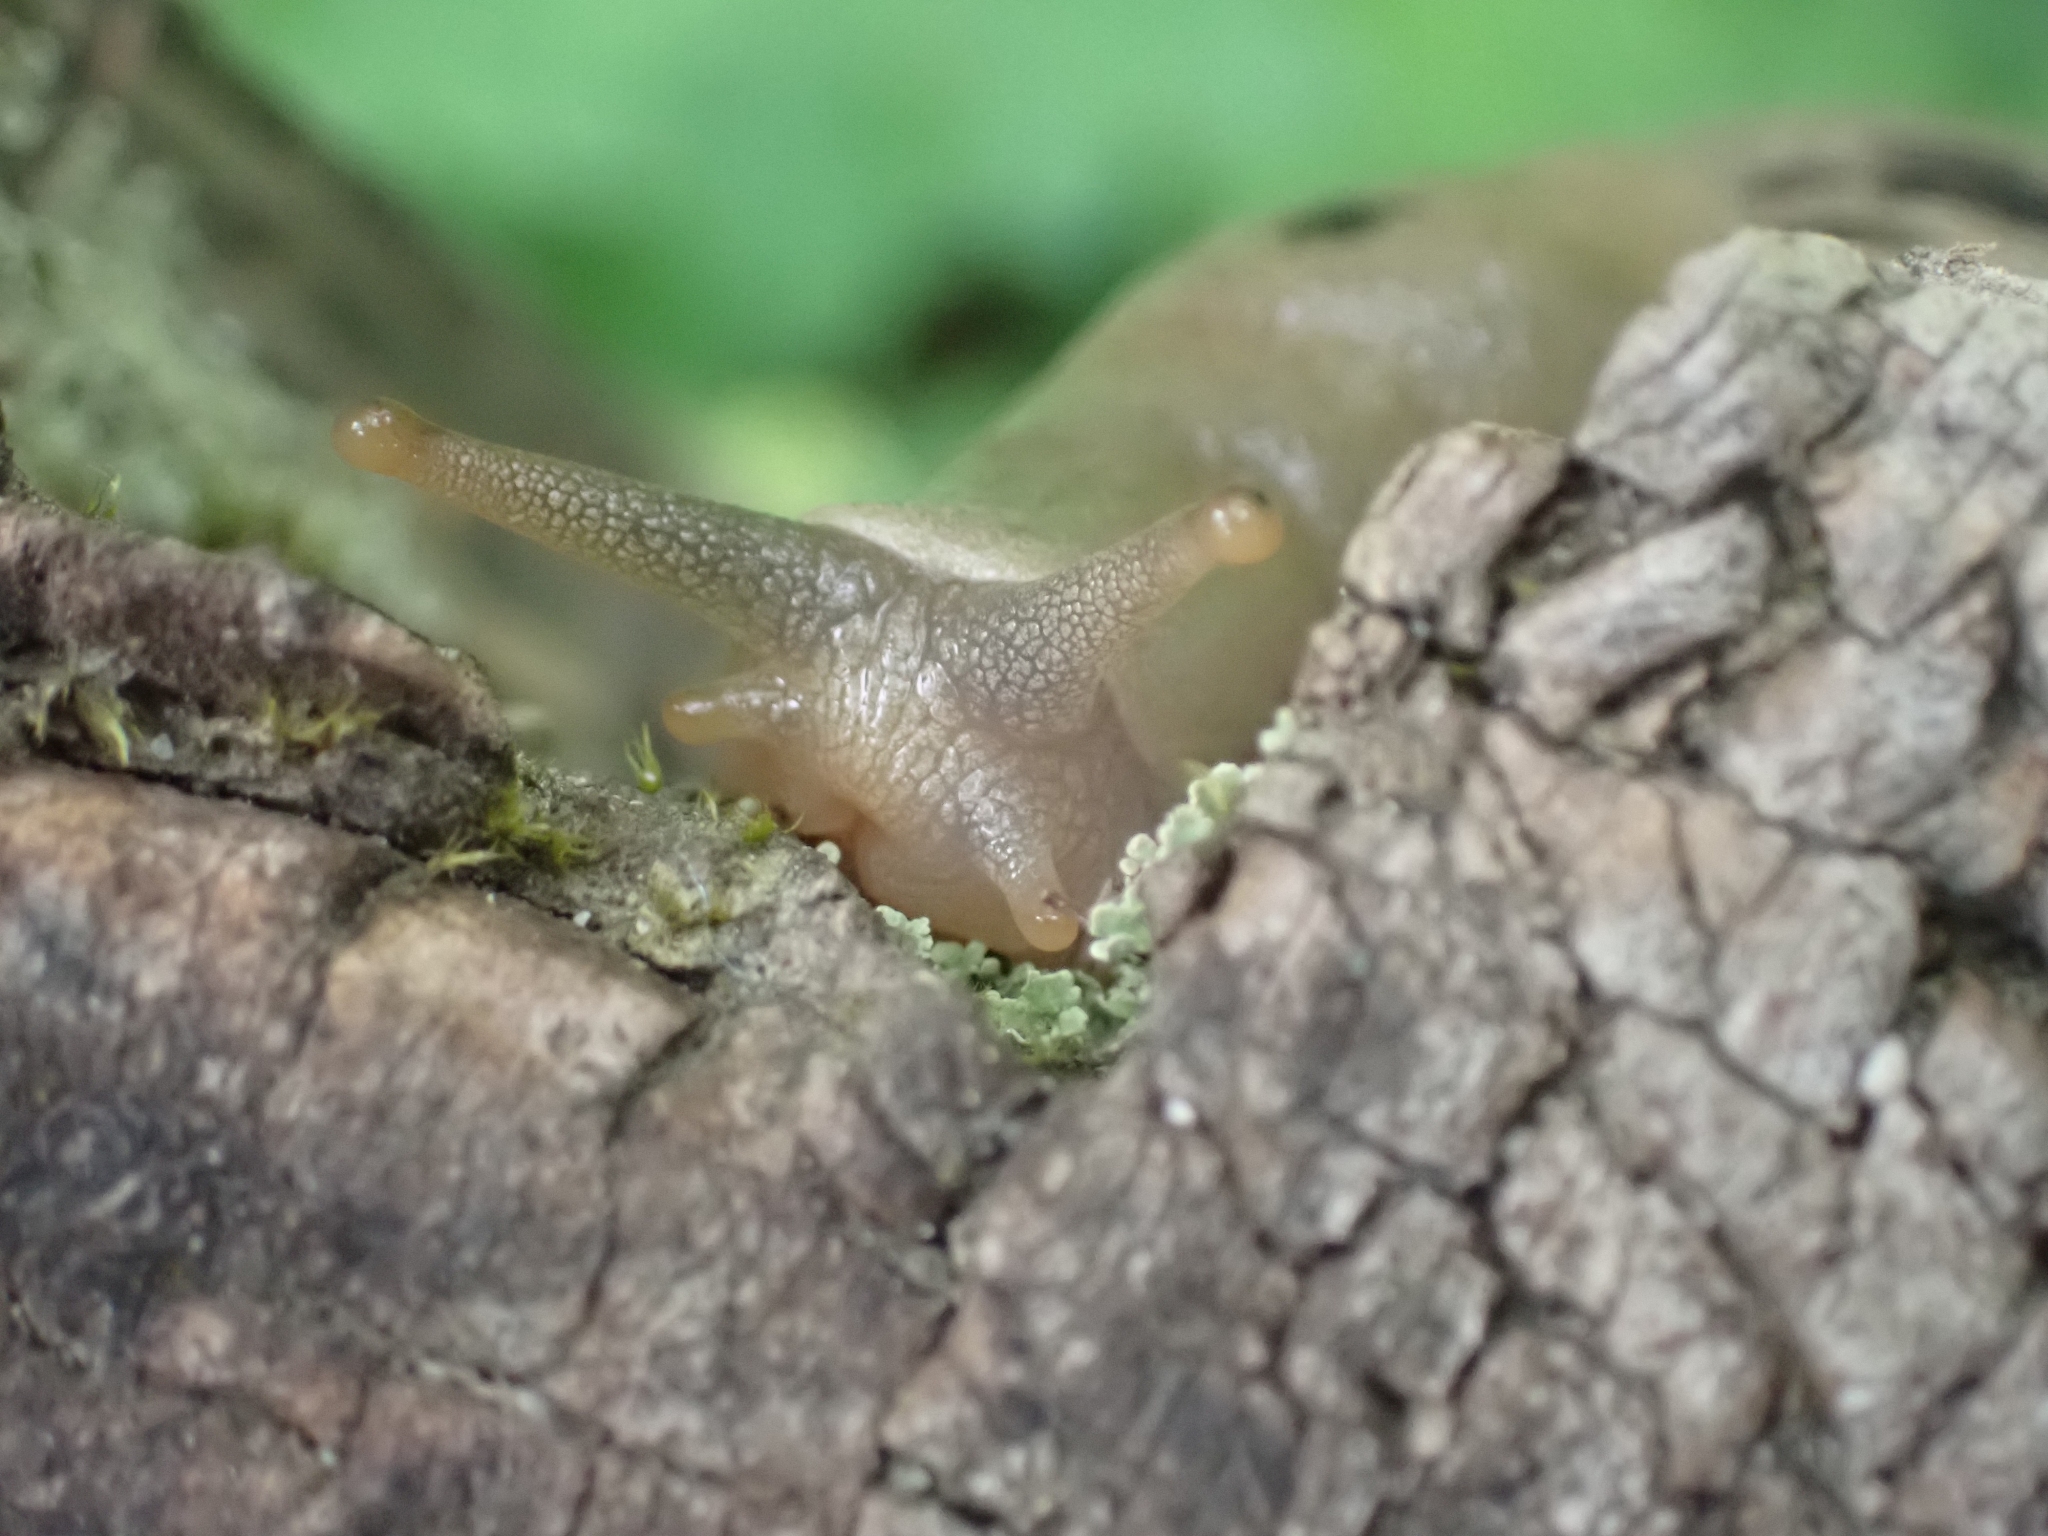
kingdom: Animalia
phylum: Mollusca
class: Gastropoda
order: Stylommatophora
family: Ariolimacidae
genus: Ariolimax
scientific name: Ariolimax columbianus
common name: Pacific banana slug
